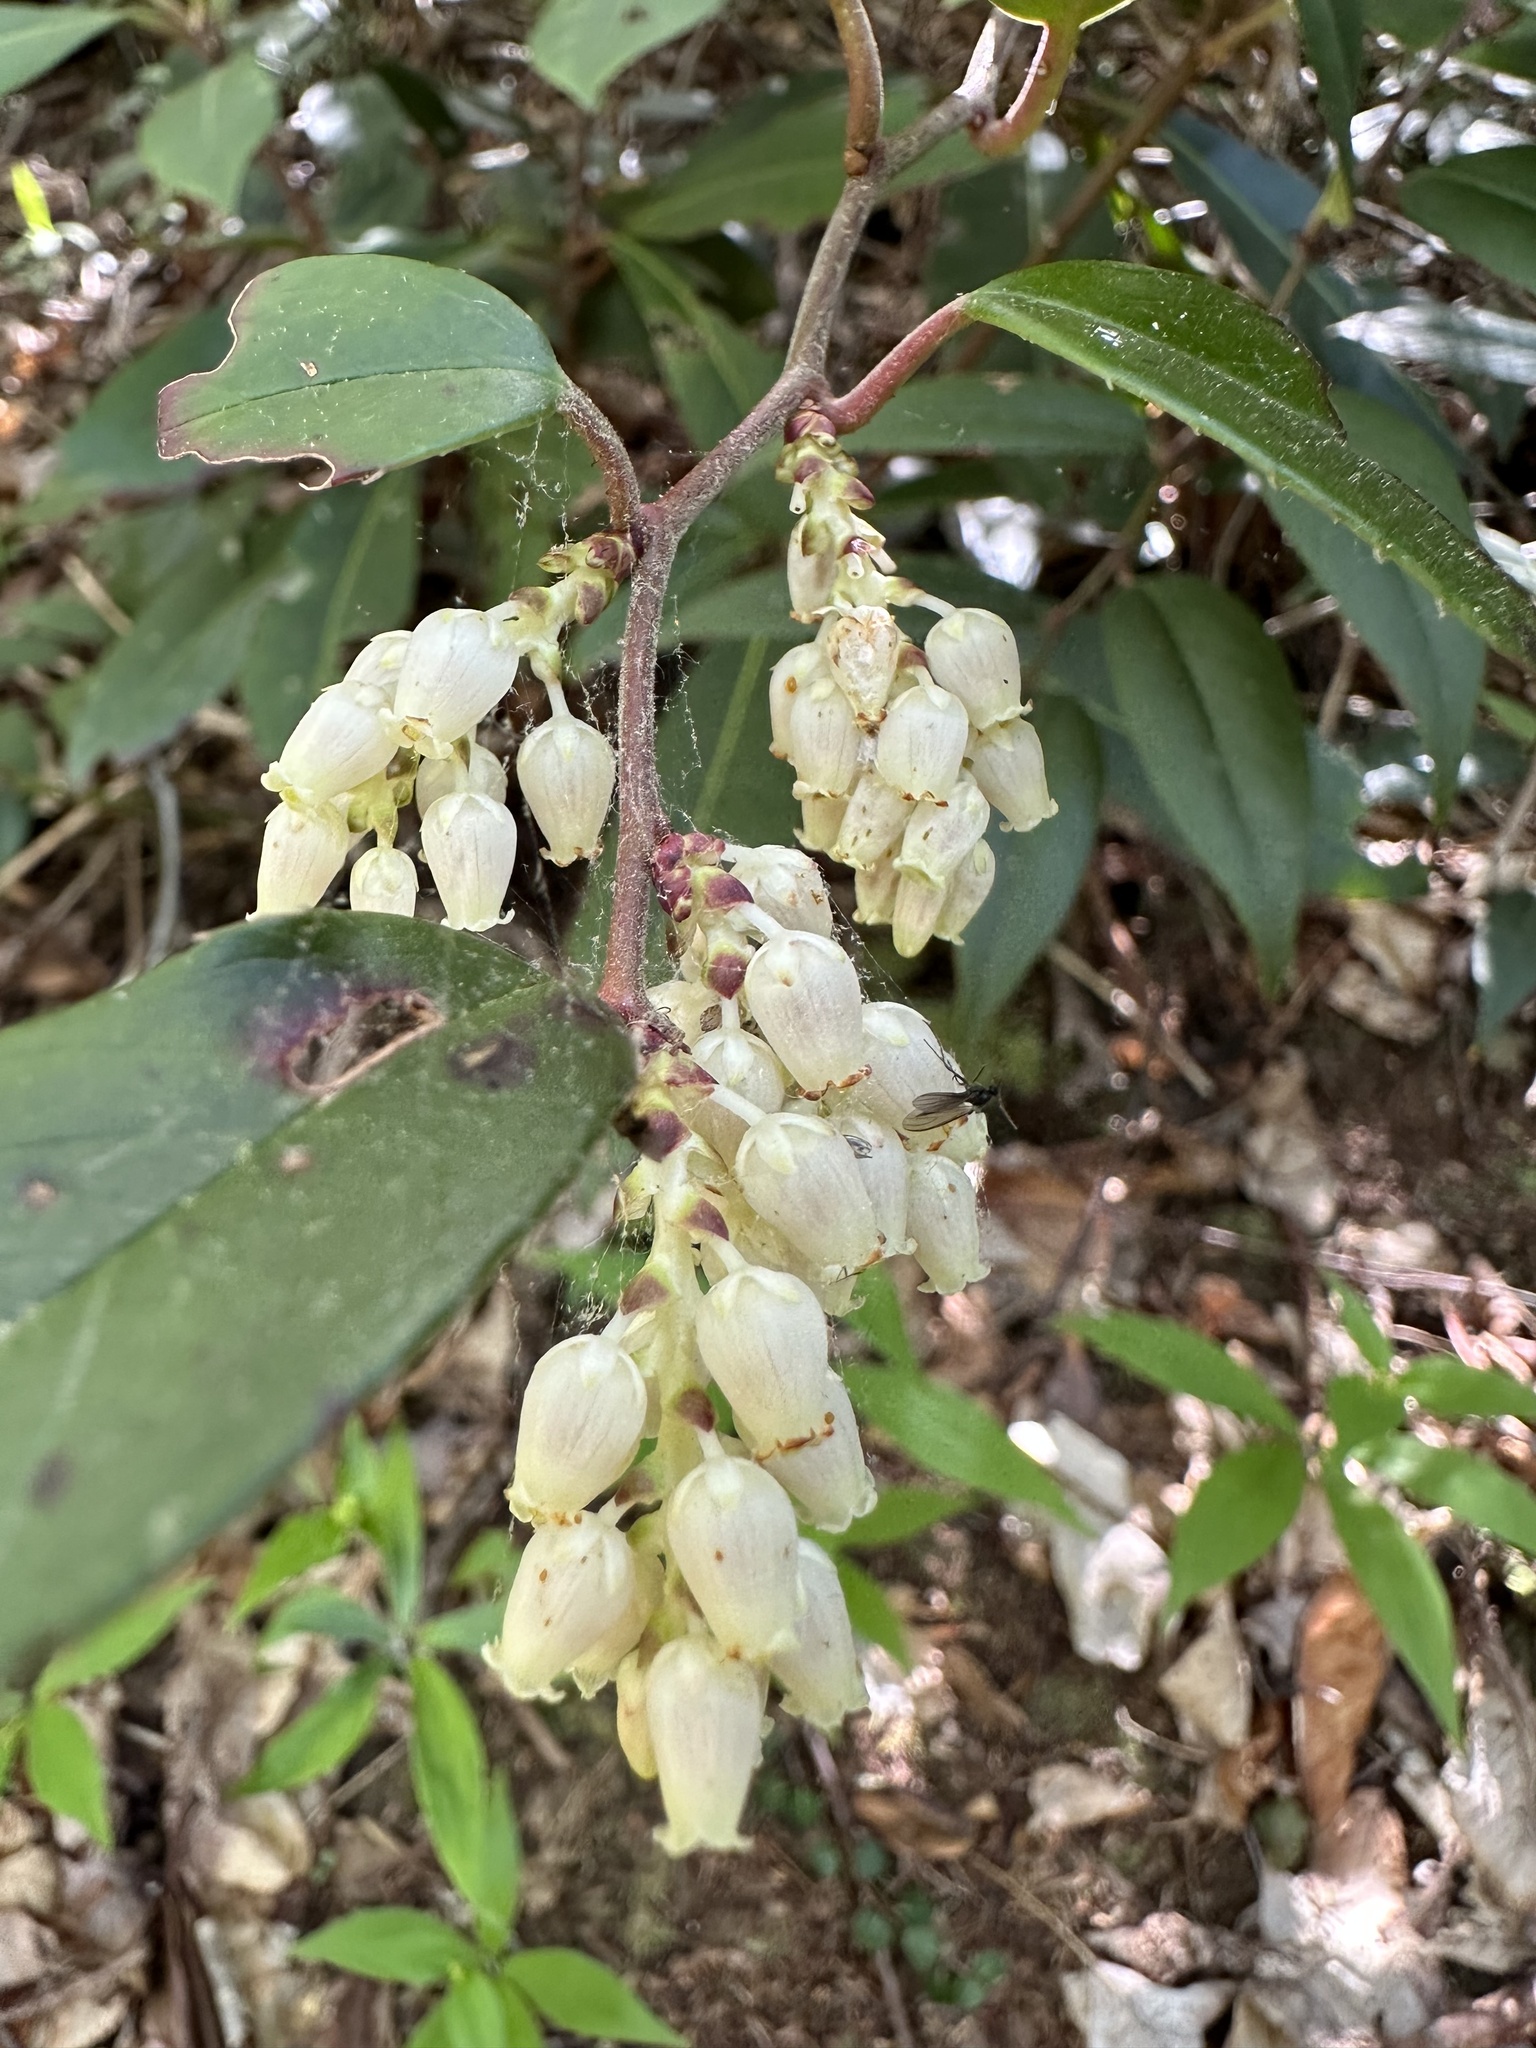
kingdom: Plantae
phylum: Tracheophyta
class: Magnoliopsida
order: Ericales
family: Ericaceae
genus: Leucothoe
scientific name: Leucothoe fontanesiana
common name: Fetterbush
